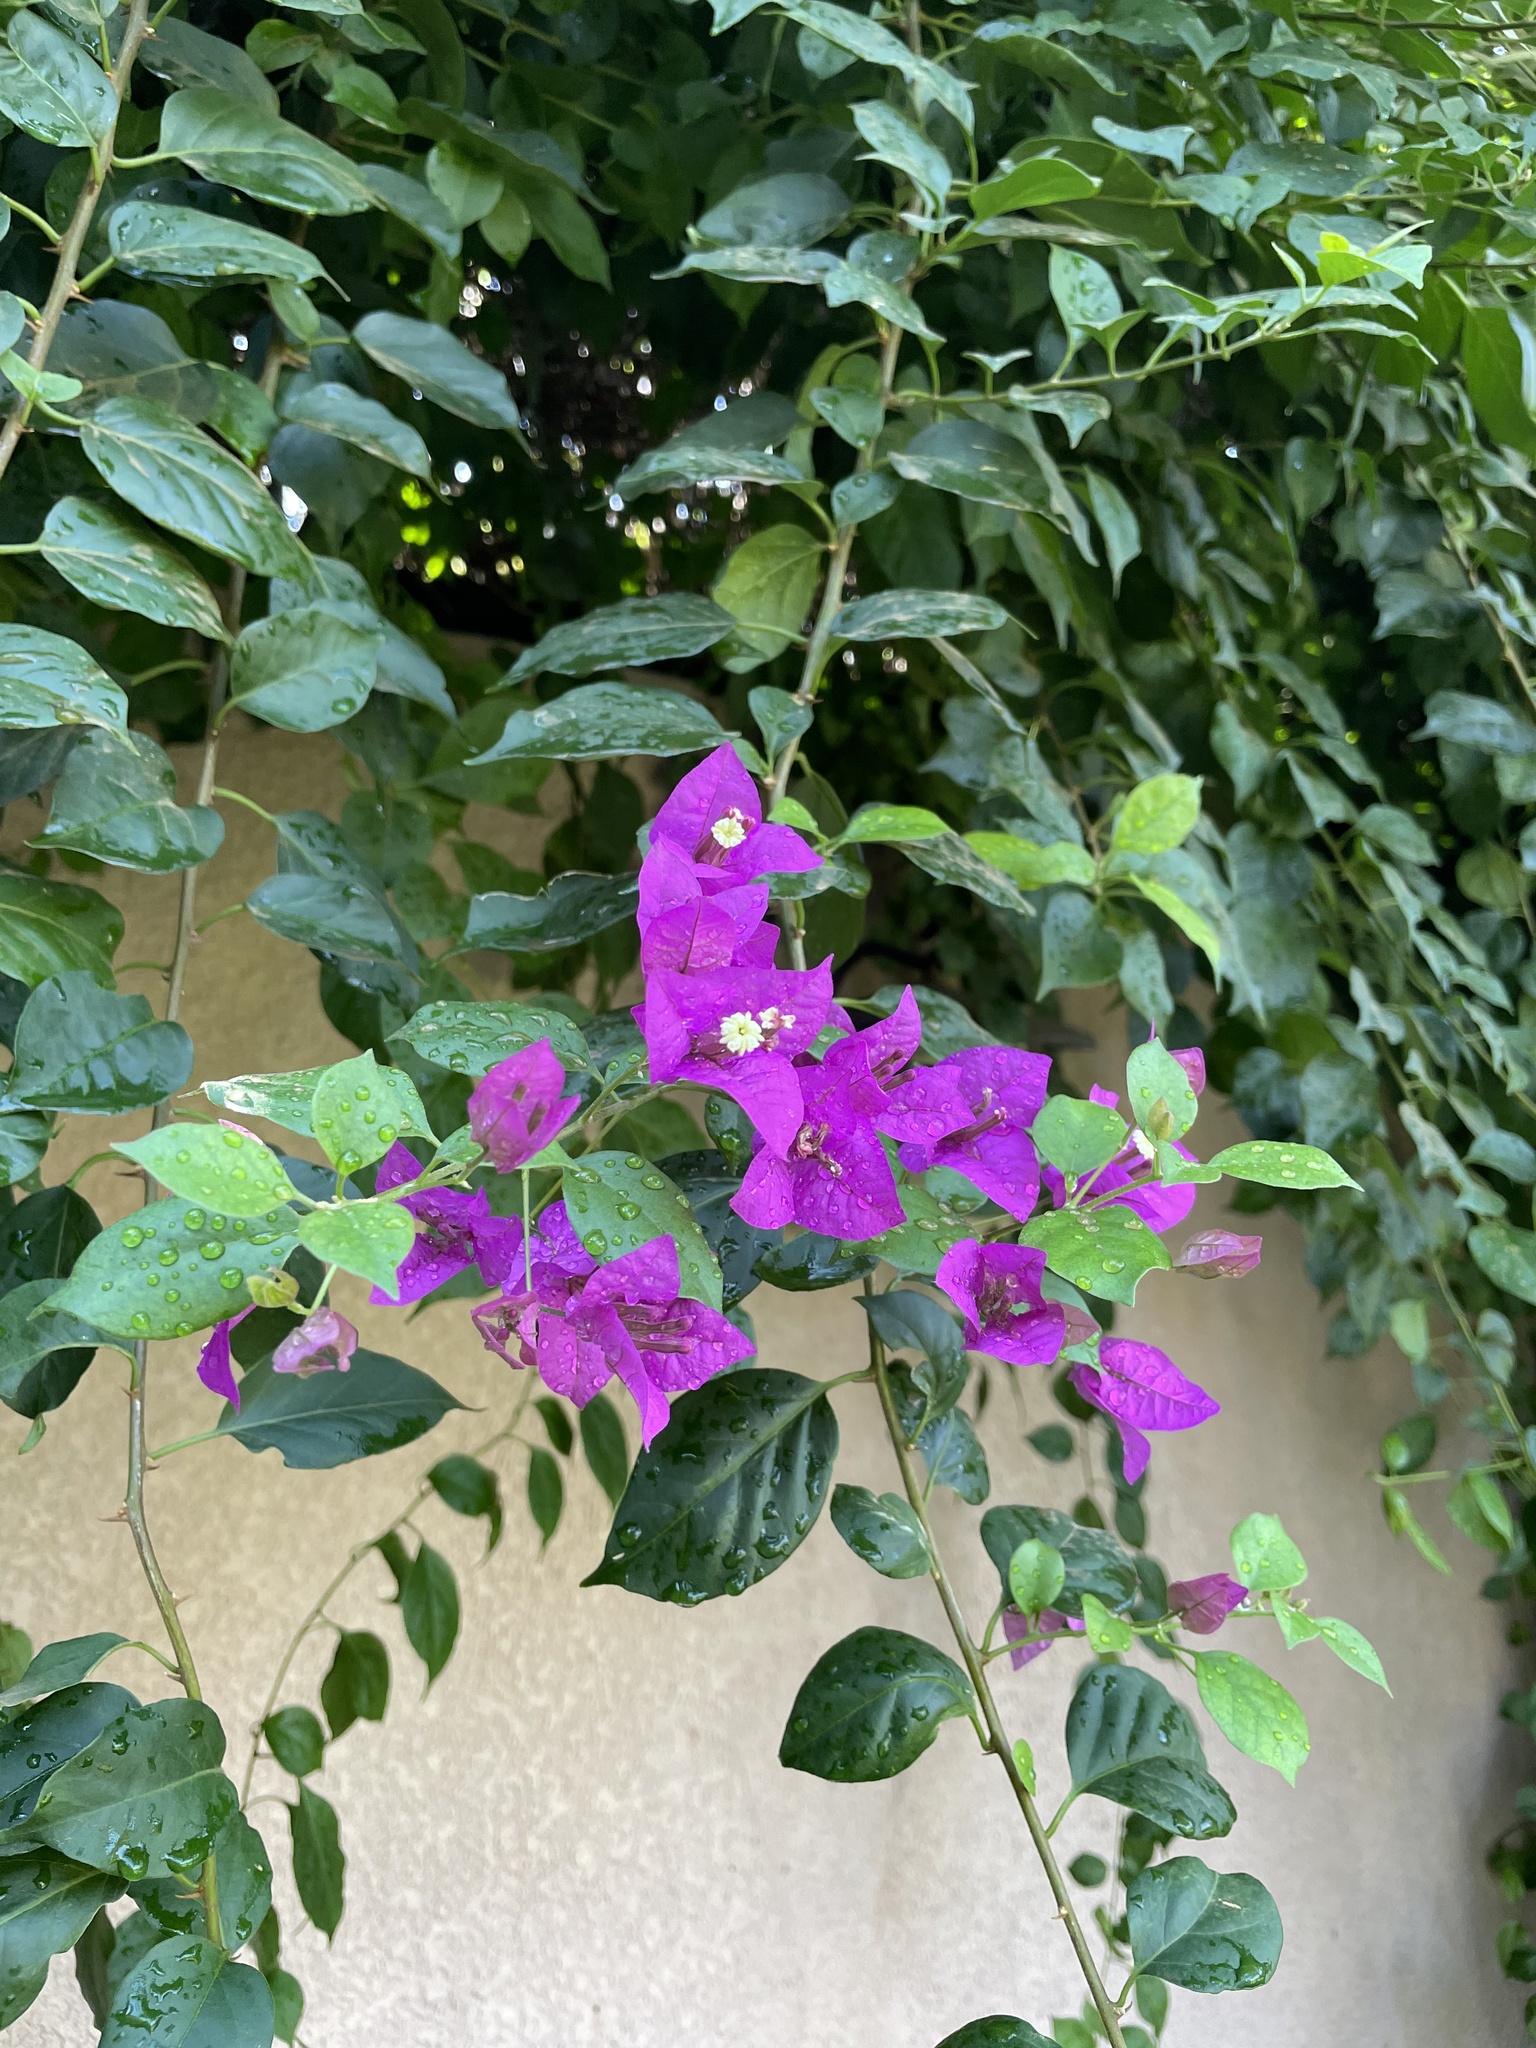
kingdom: Plantae
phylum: Tracheophyta
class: Magnoliopsida
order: Caryophyllales
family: Nyctaginaceae
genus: Bougainvillea
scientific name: Bougainvillea glabra
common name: Paperflower
